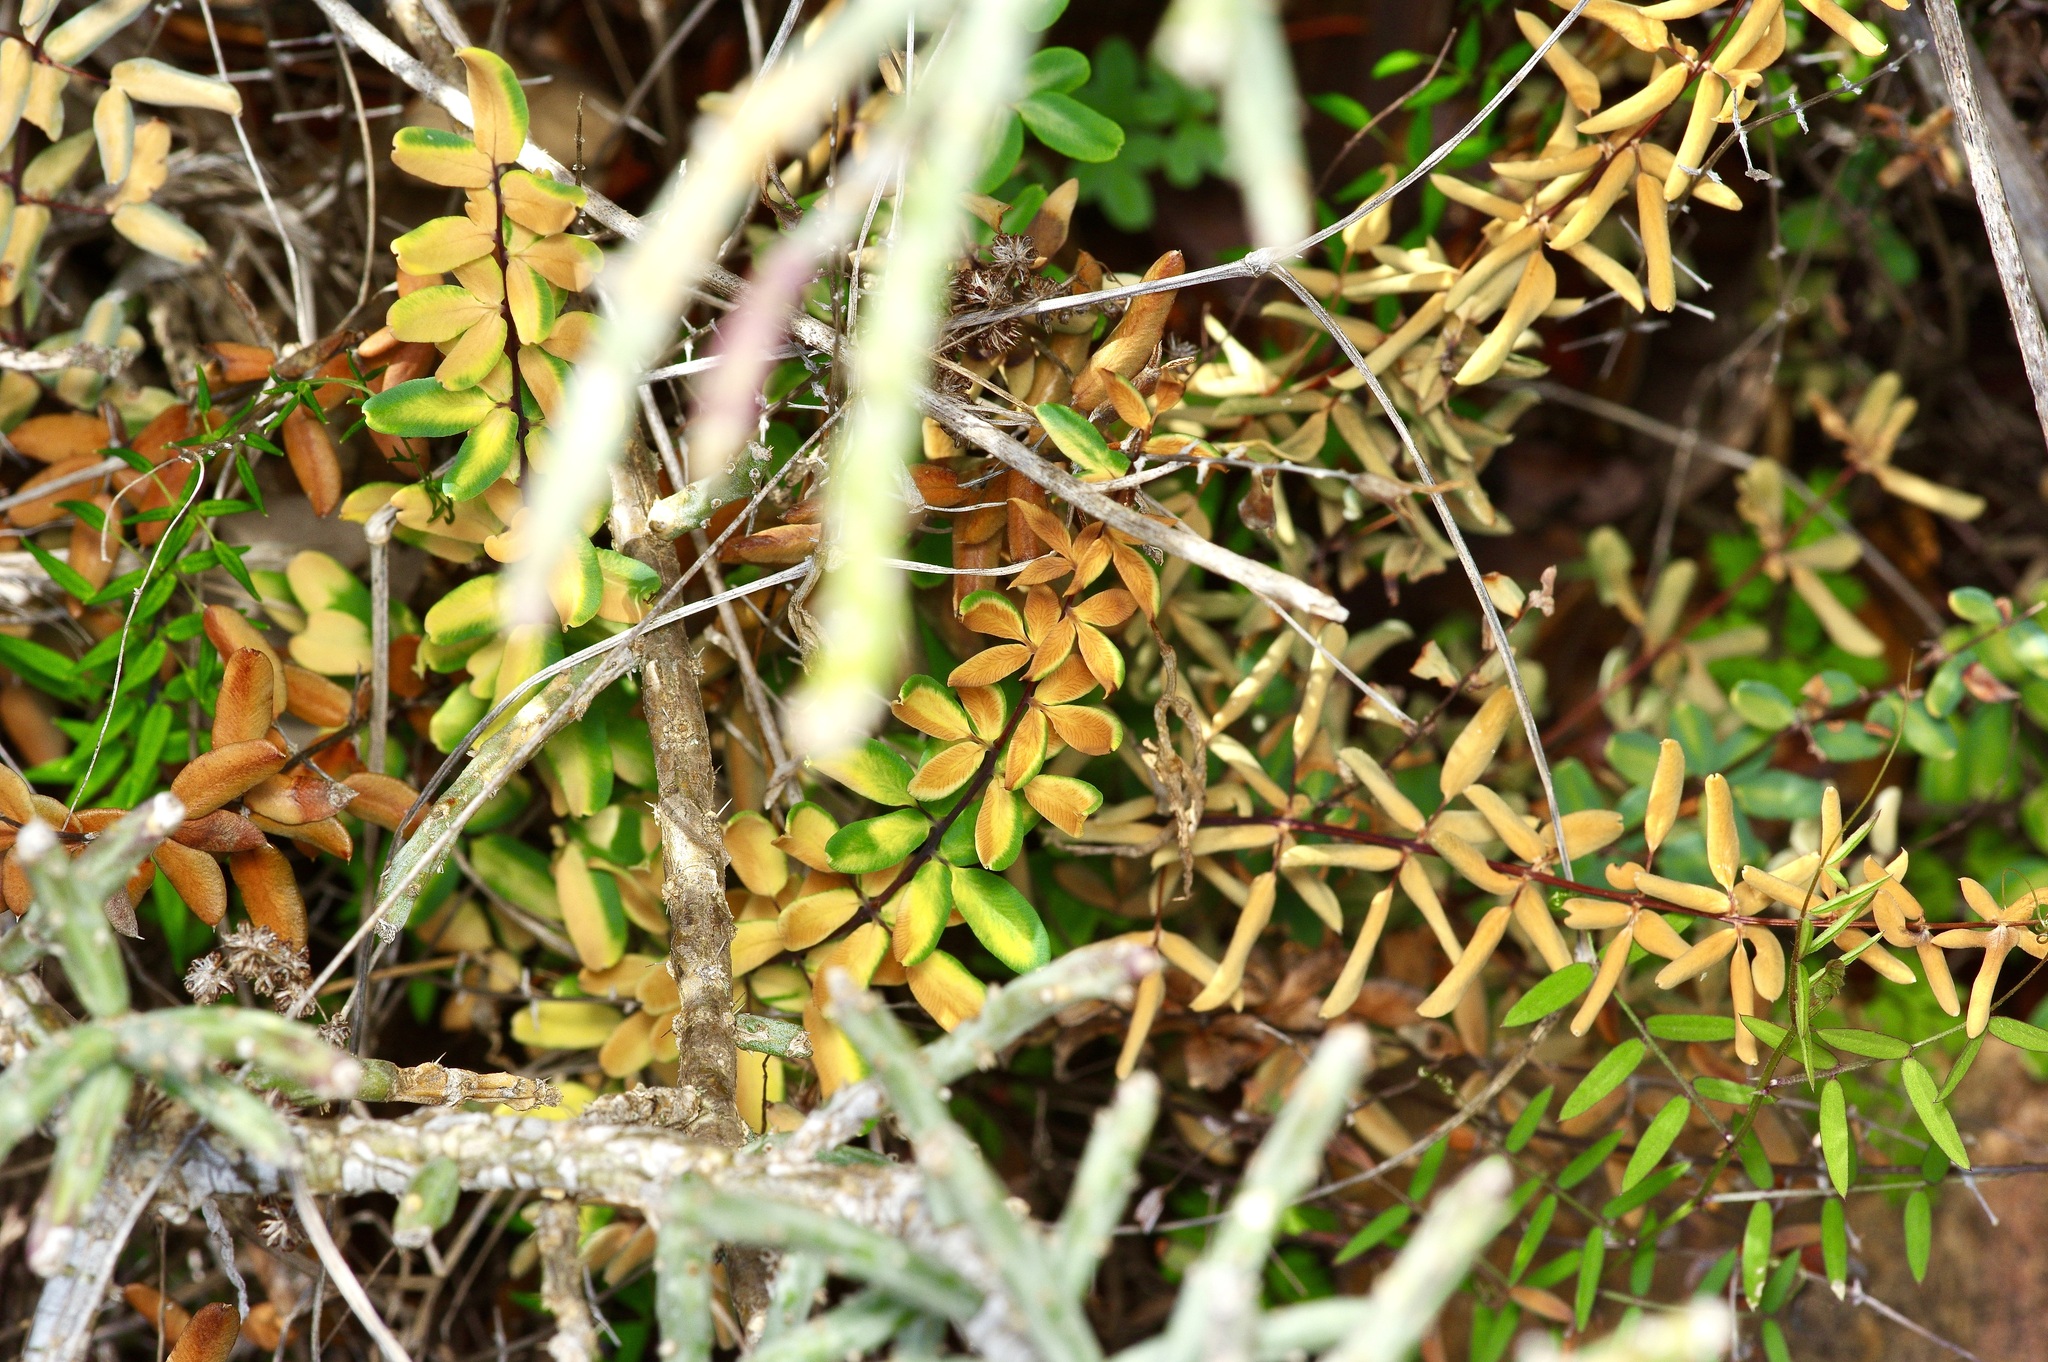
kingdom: Plantae
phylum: Tracheophyta
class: Polypodiopsida
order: Polypodiales
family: Pteridaceae
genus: Pellaea
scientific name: Pellaea wrightiana
